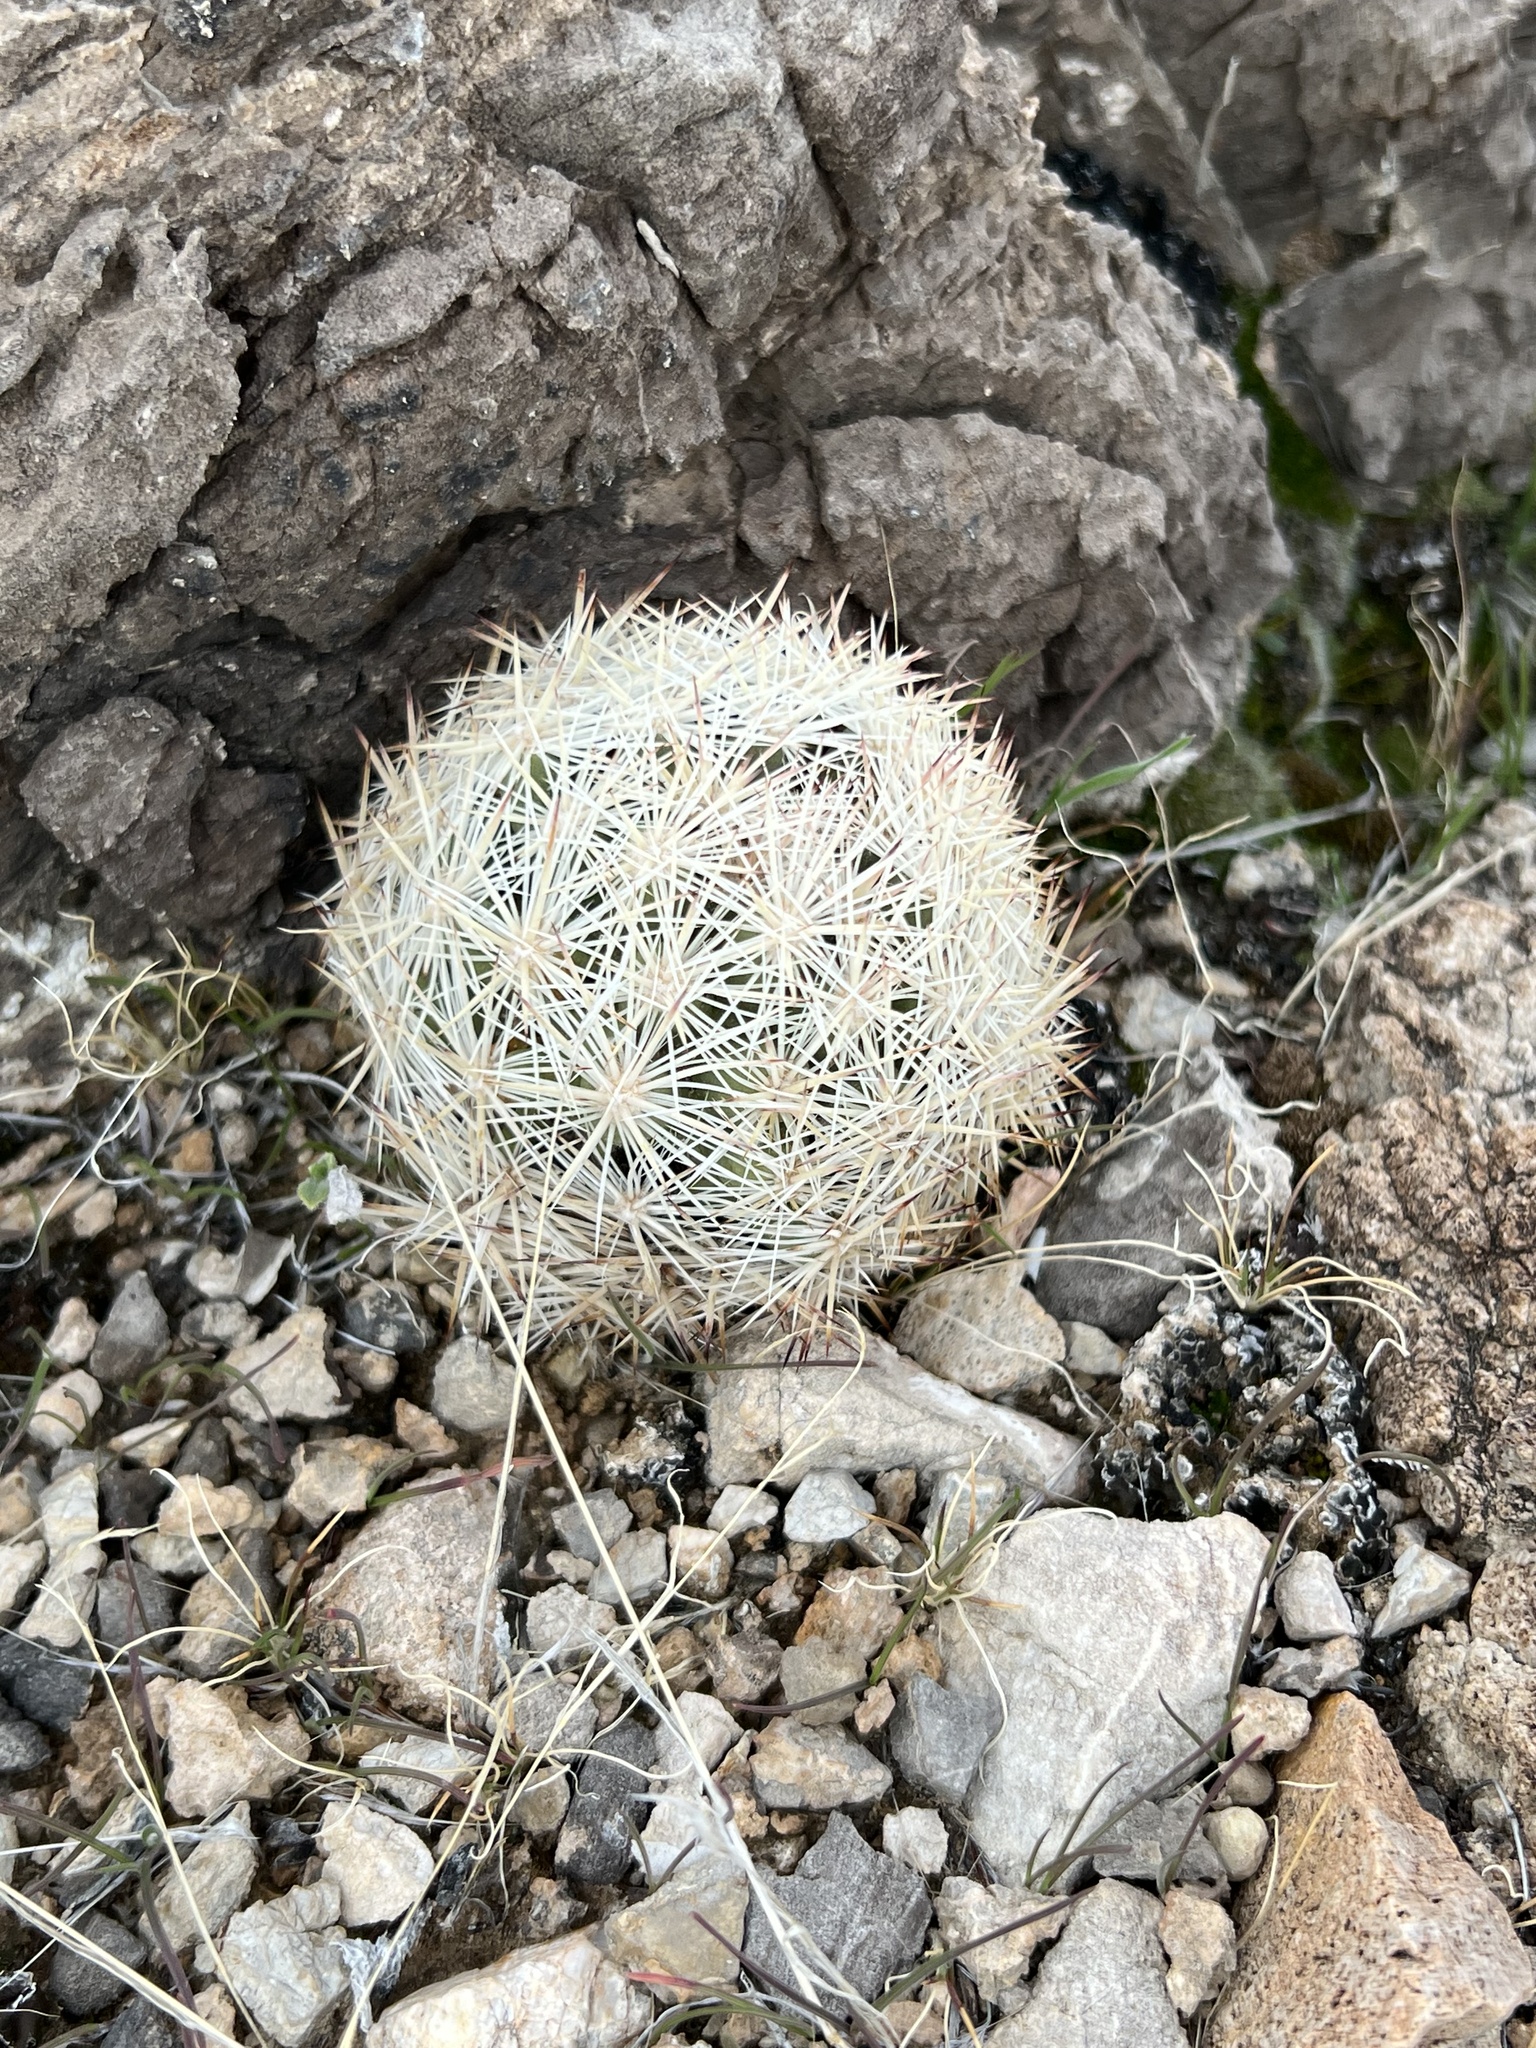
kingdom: Plantae
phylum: Tracheophyta
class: Magnoliopsida
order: Caryophyllales
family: Cactaceae
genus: Pelecyphora
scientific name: Pelecyphora dasyacantha
